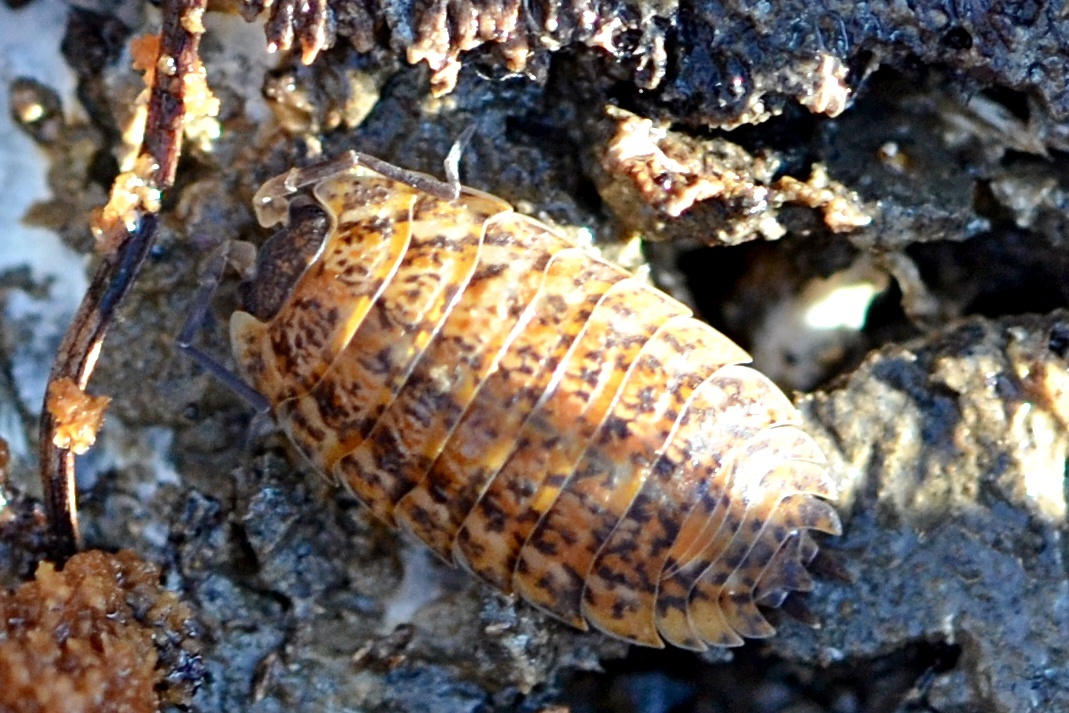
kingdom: Animalia
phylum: Arthropoda
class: Malacostraca
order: Isopoda
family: Trachelipodidae
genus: Trachelipus
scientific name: Trachelipus rathkii
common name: Isopod
